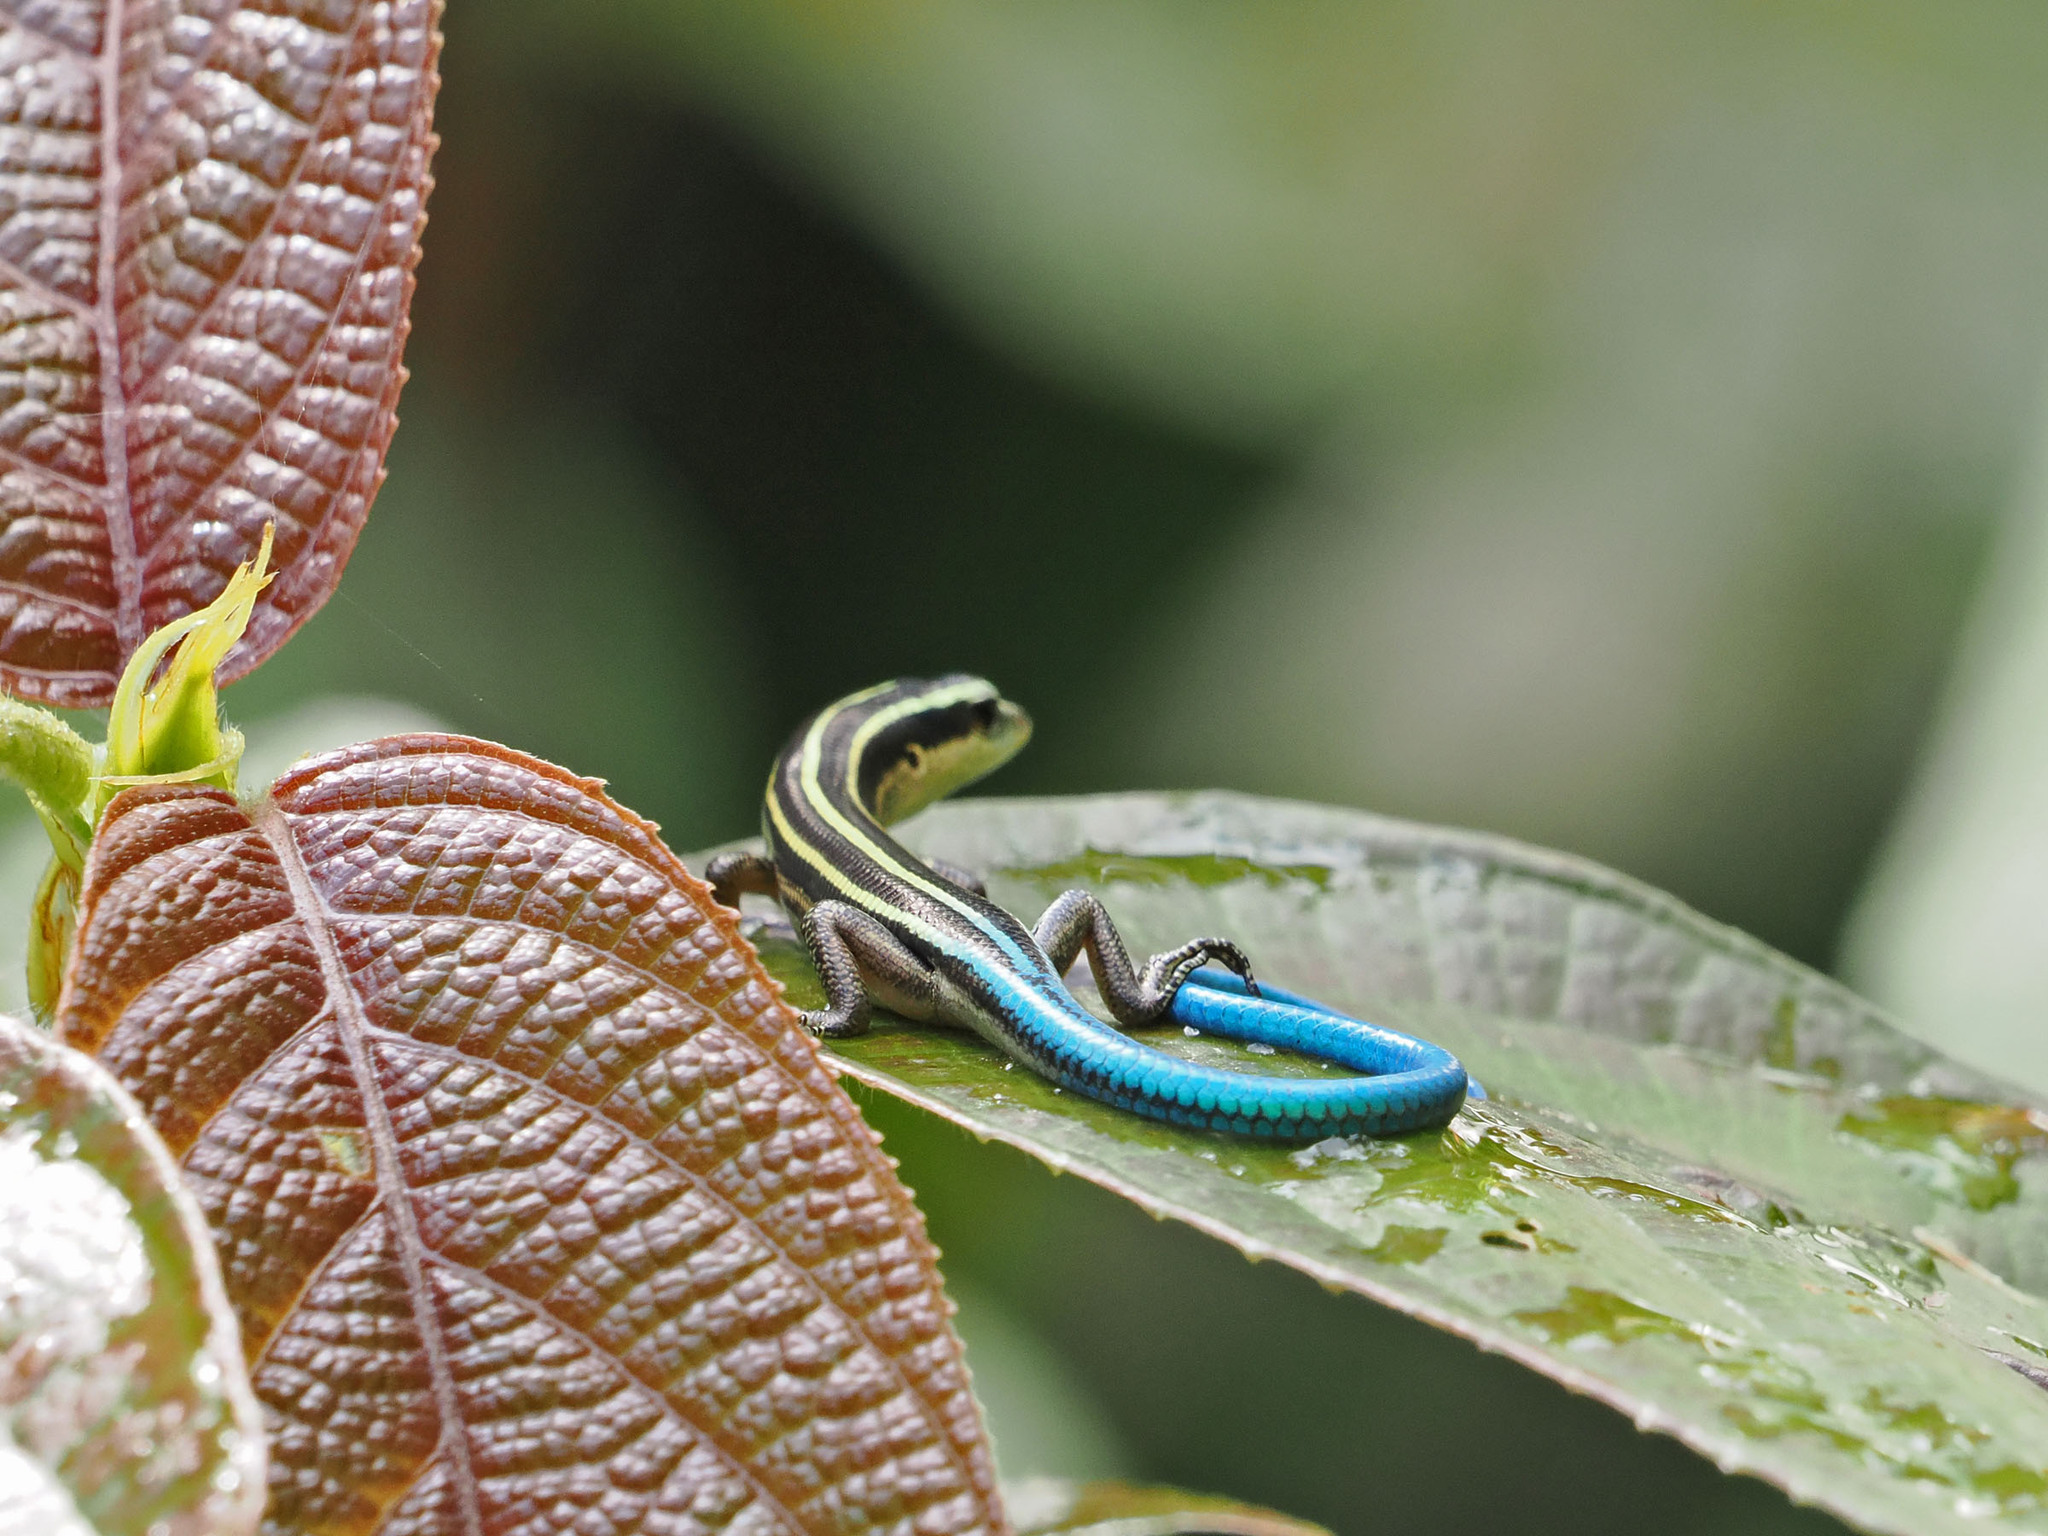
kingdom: Animalia
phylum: Chordata
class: Squamata
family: Scincidae
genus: Emoia
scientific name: Emoia caeruleocauda
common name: Pacific bluetail skink
